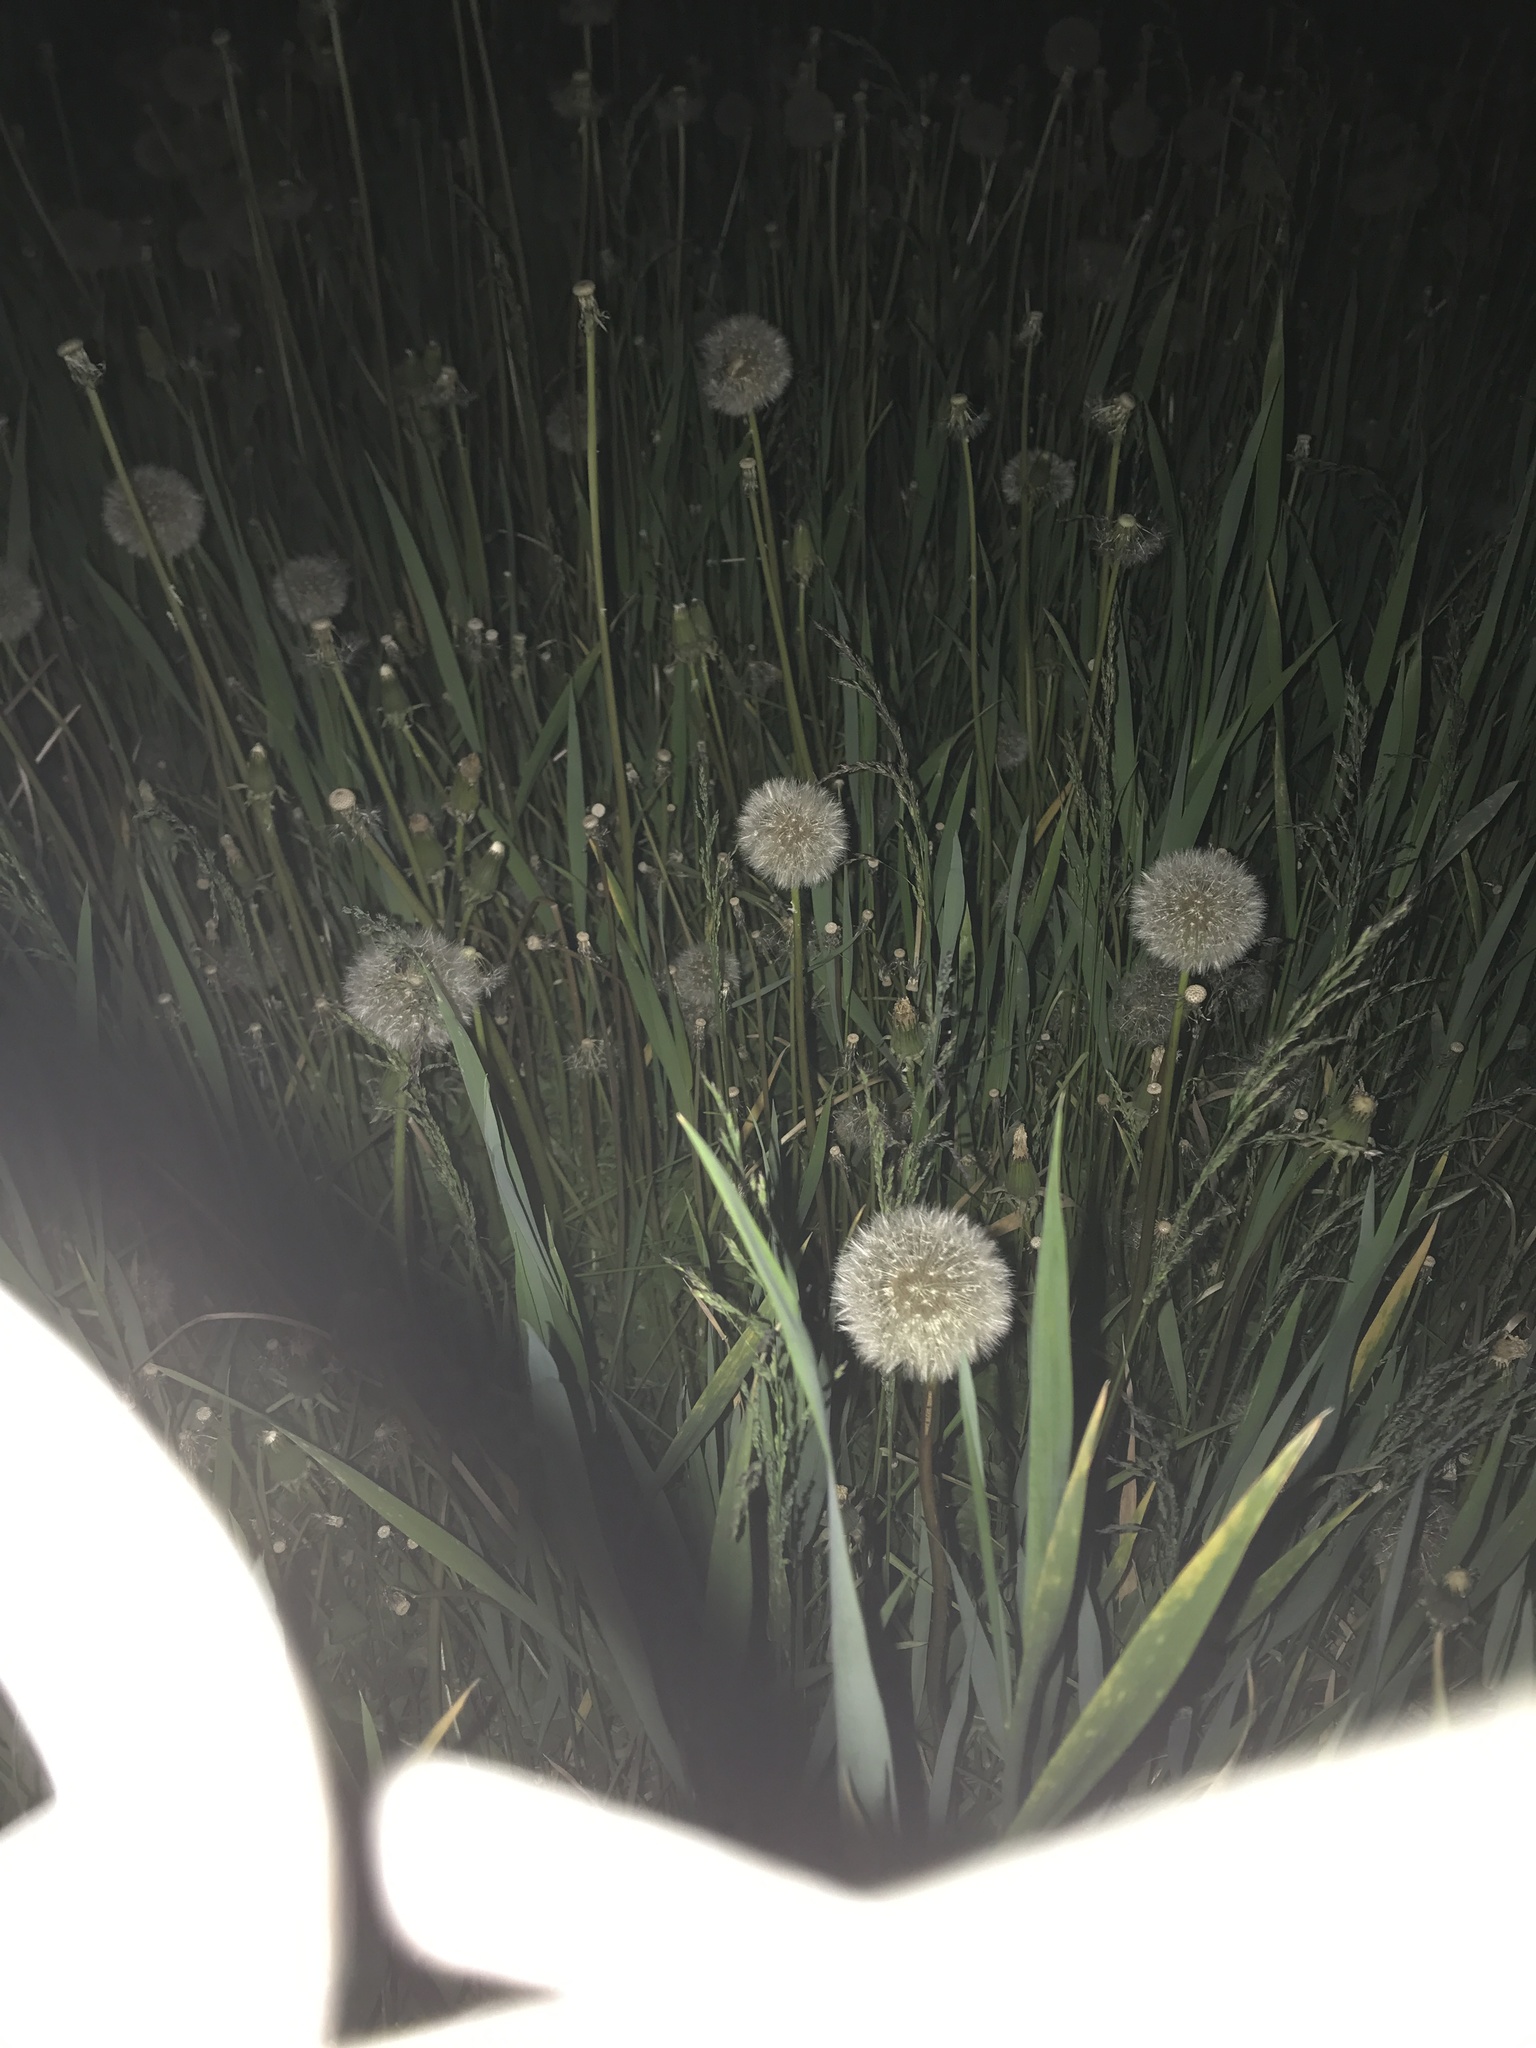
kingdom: Plantae
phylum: Tracheophyta
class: Magnoliopsida
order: Asterales
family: Asteraceae
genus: Taraxacum
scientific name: Taraxacum officinale
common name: Common dandelion
